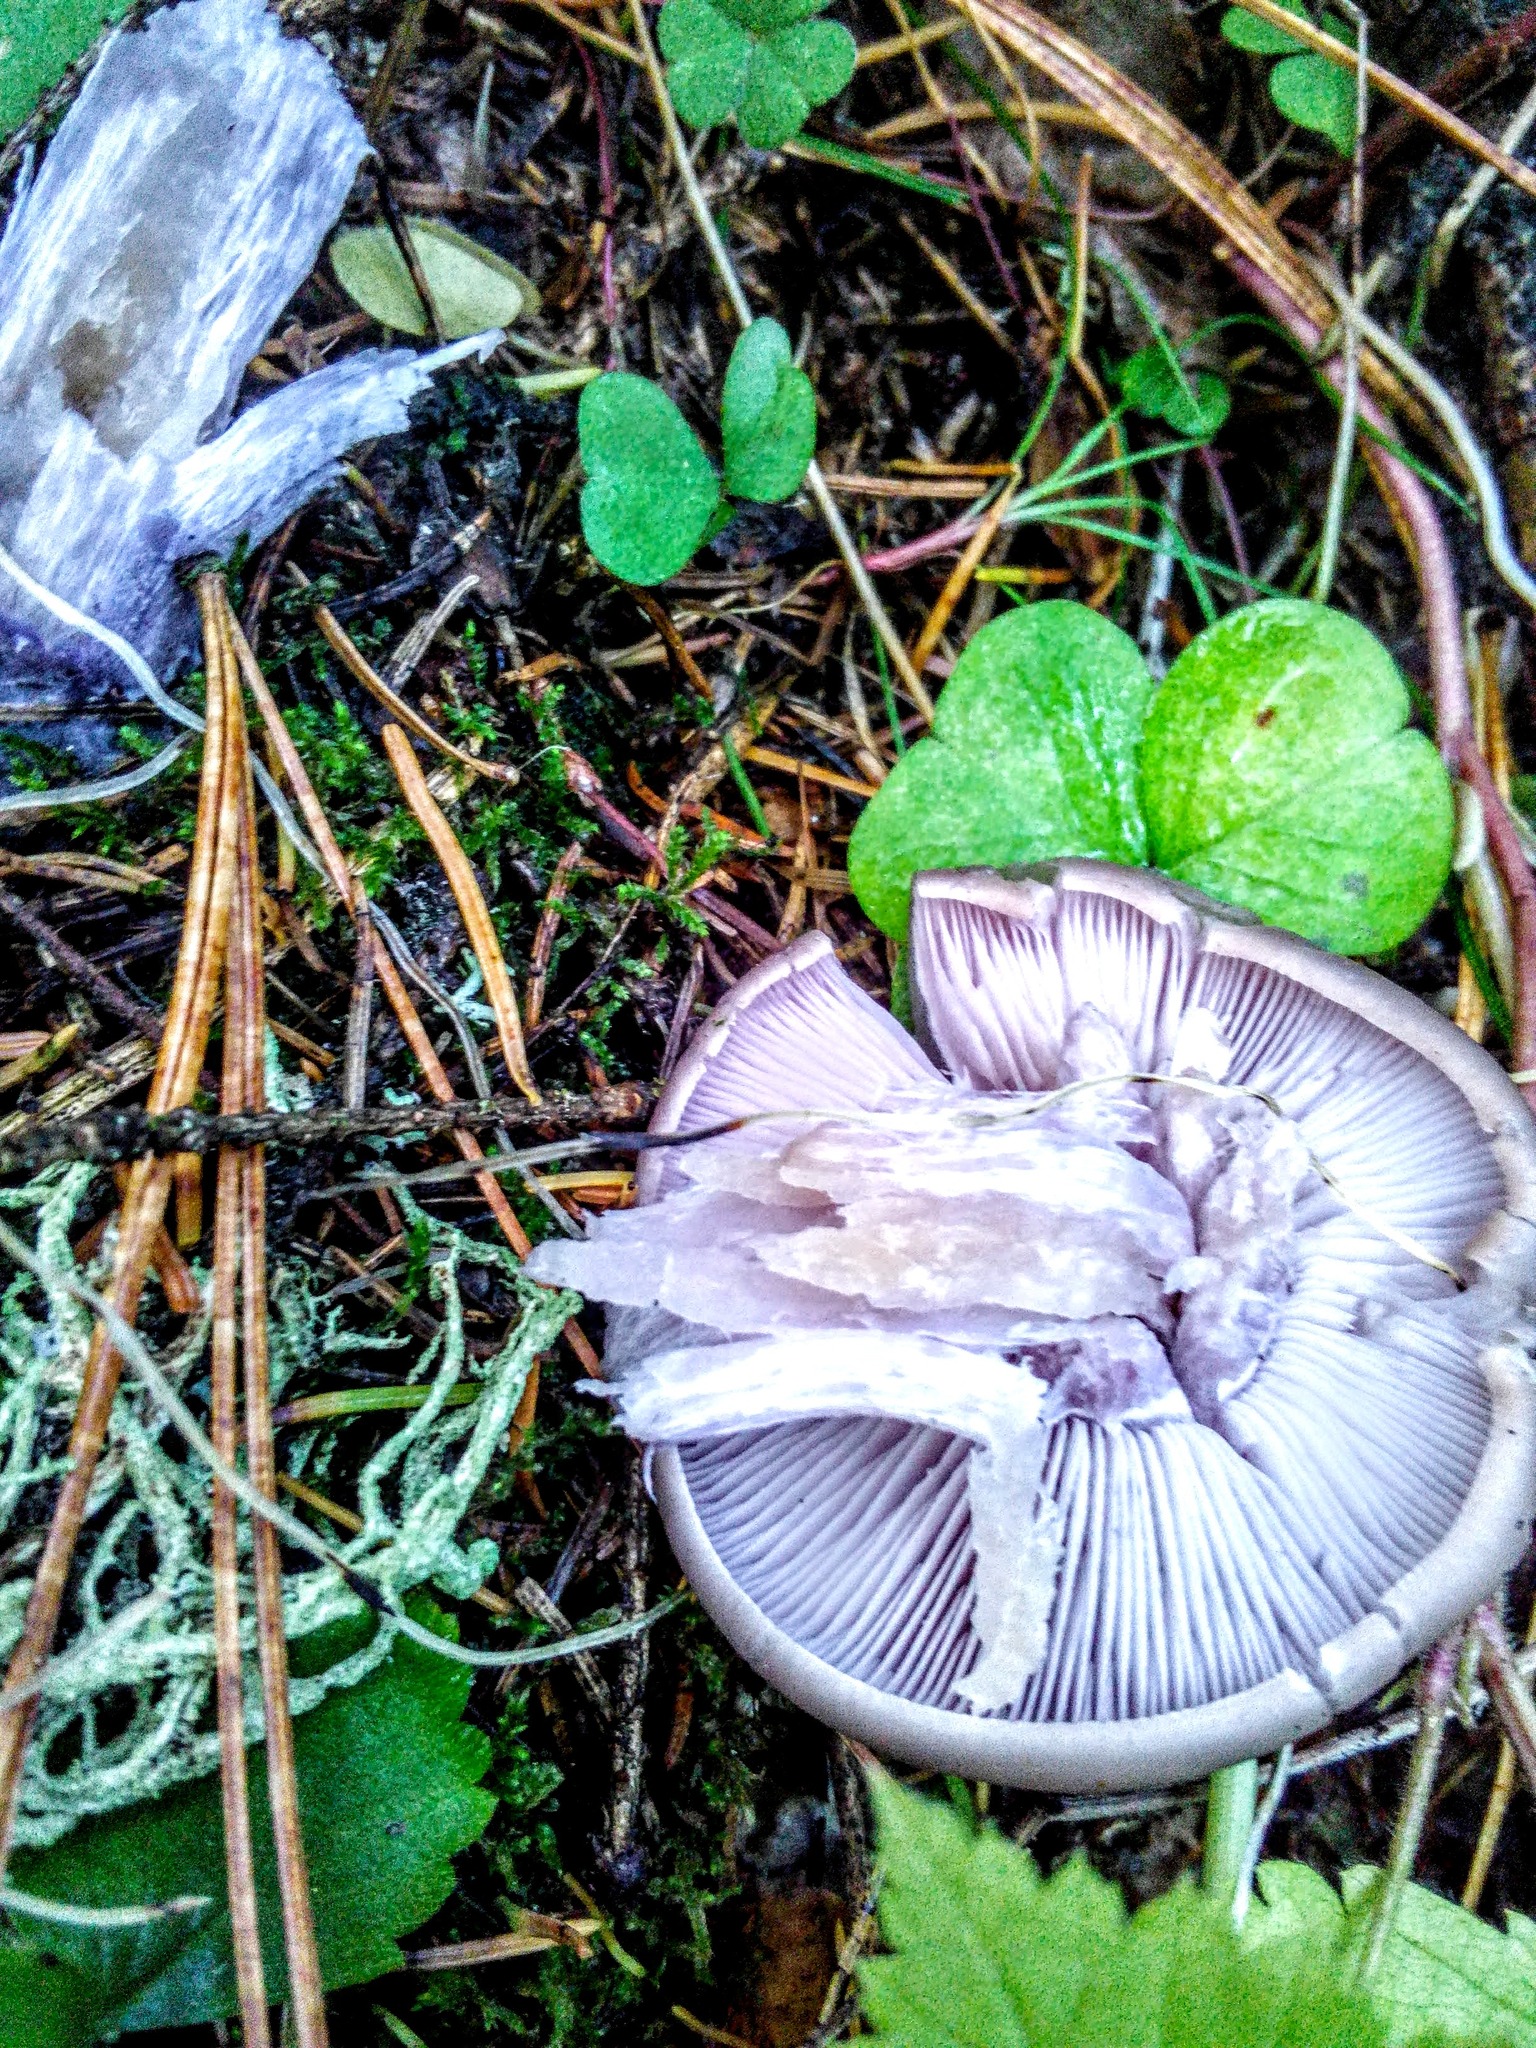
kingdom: Fungi
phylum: Basidiomycota
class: Agaricomycetes
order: Agaricales
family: Tricholomataceae
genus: Collybia
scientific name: Collybia
